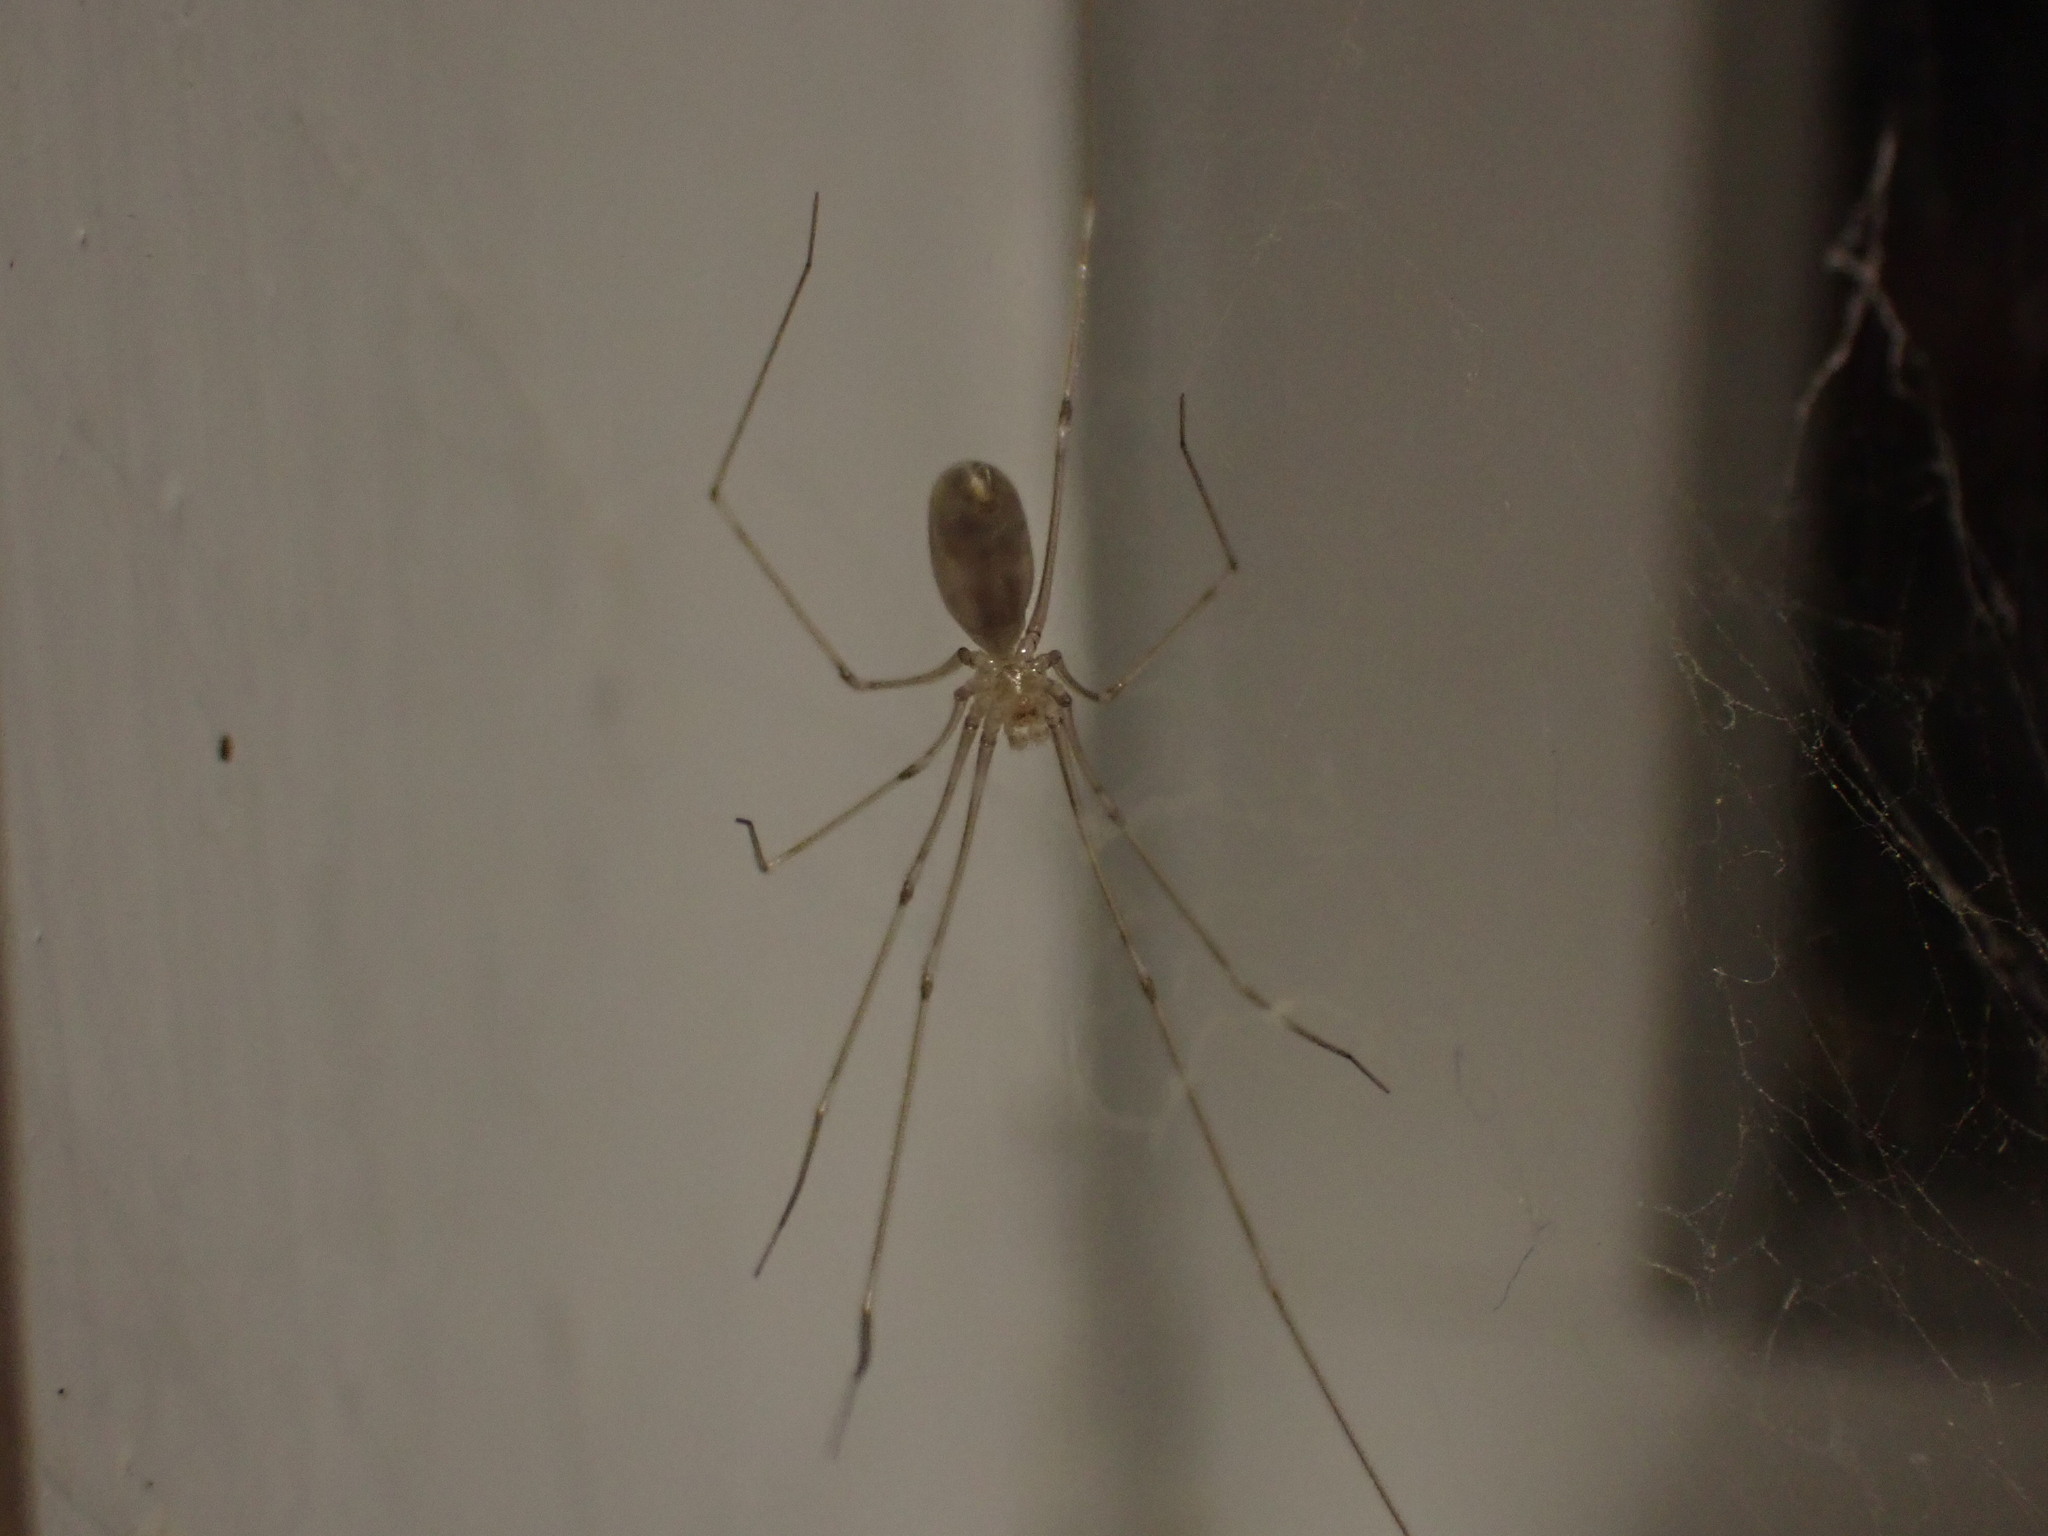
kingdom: Animalia
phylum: Arthropoda
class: Arachnida
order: Araneae
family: Pholcidae
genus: Pholcus
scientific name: Pholcus phalangioides
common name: Longbodied cellar spider
